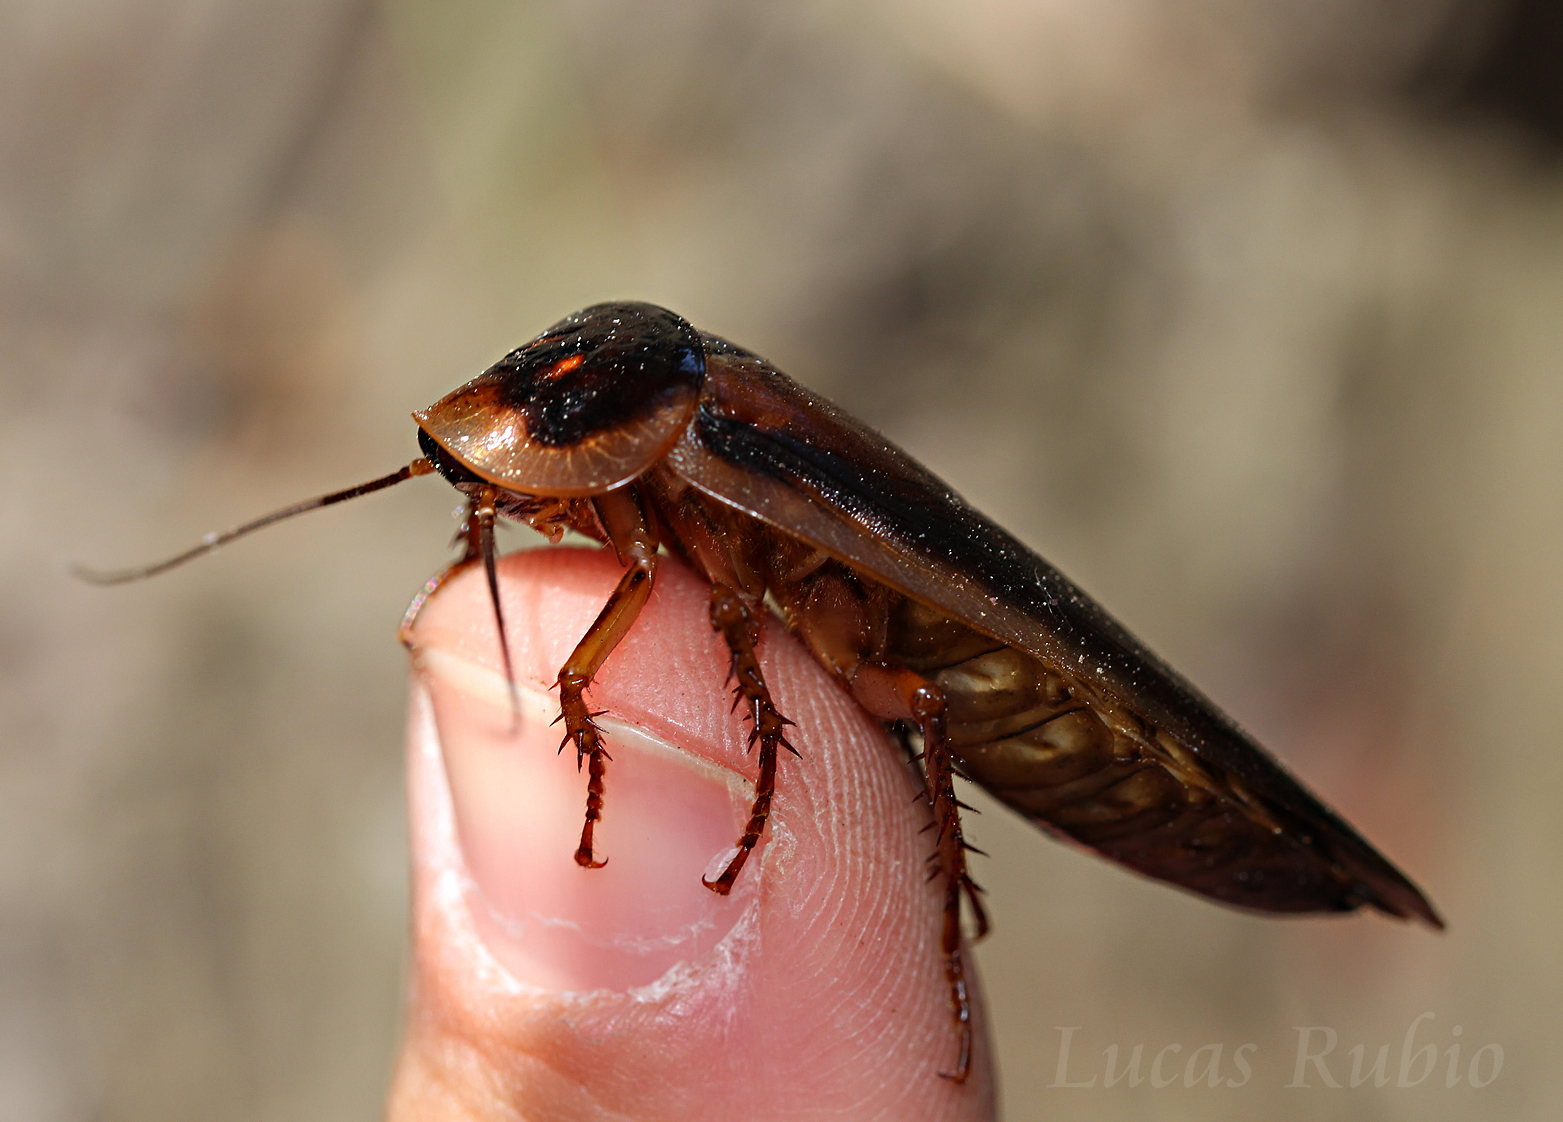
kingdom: Animalia
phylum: Arthropoda
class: Insecta
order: Blattodea
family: Blaberidae
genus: Blaptica
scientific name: Blaptica dubia
